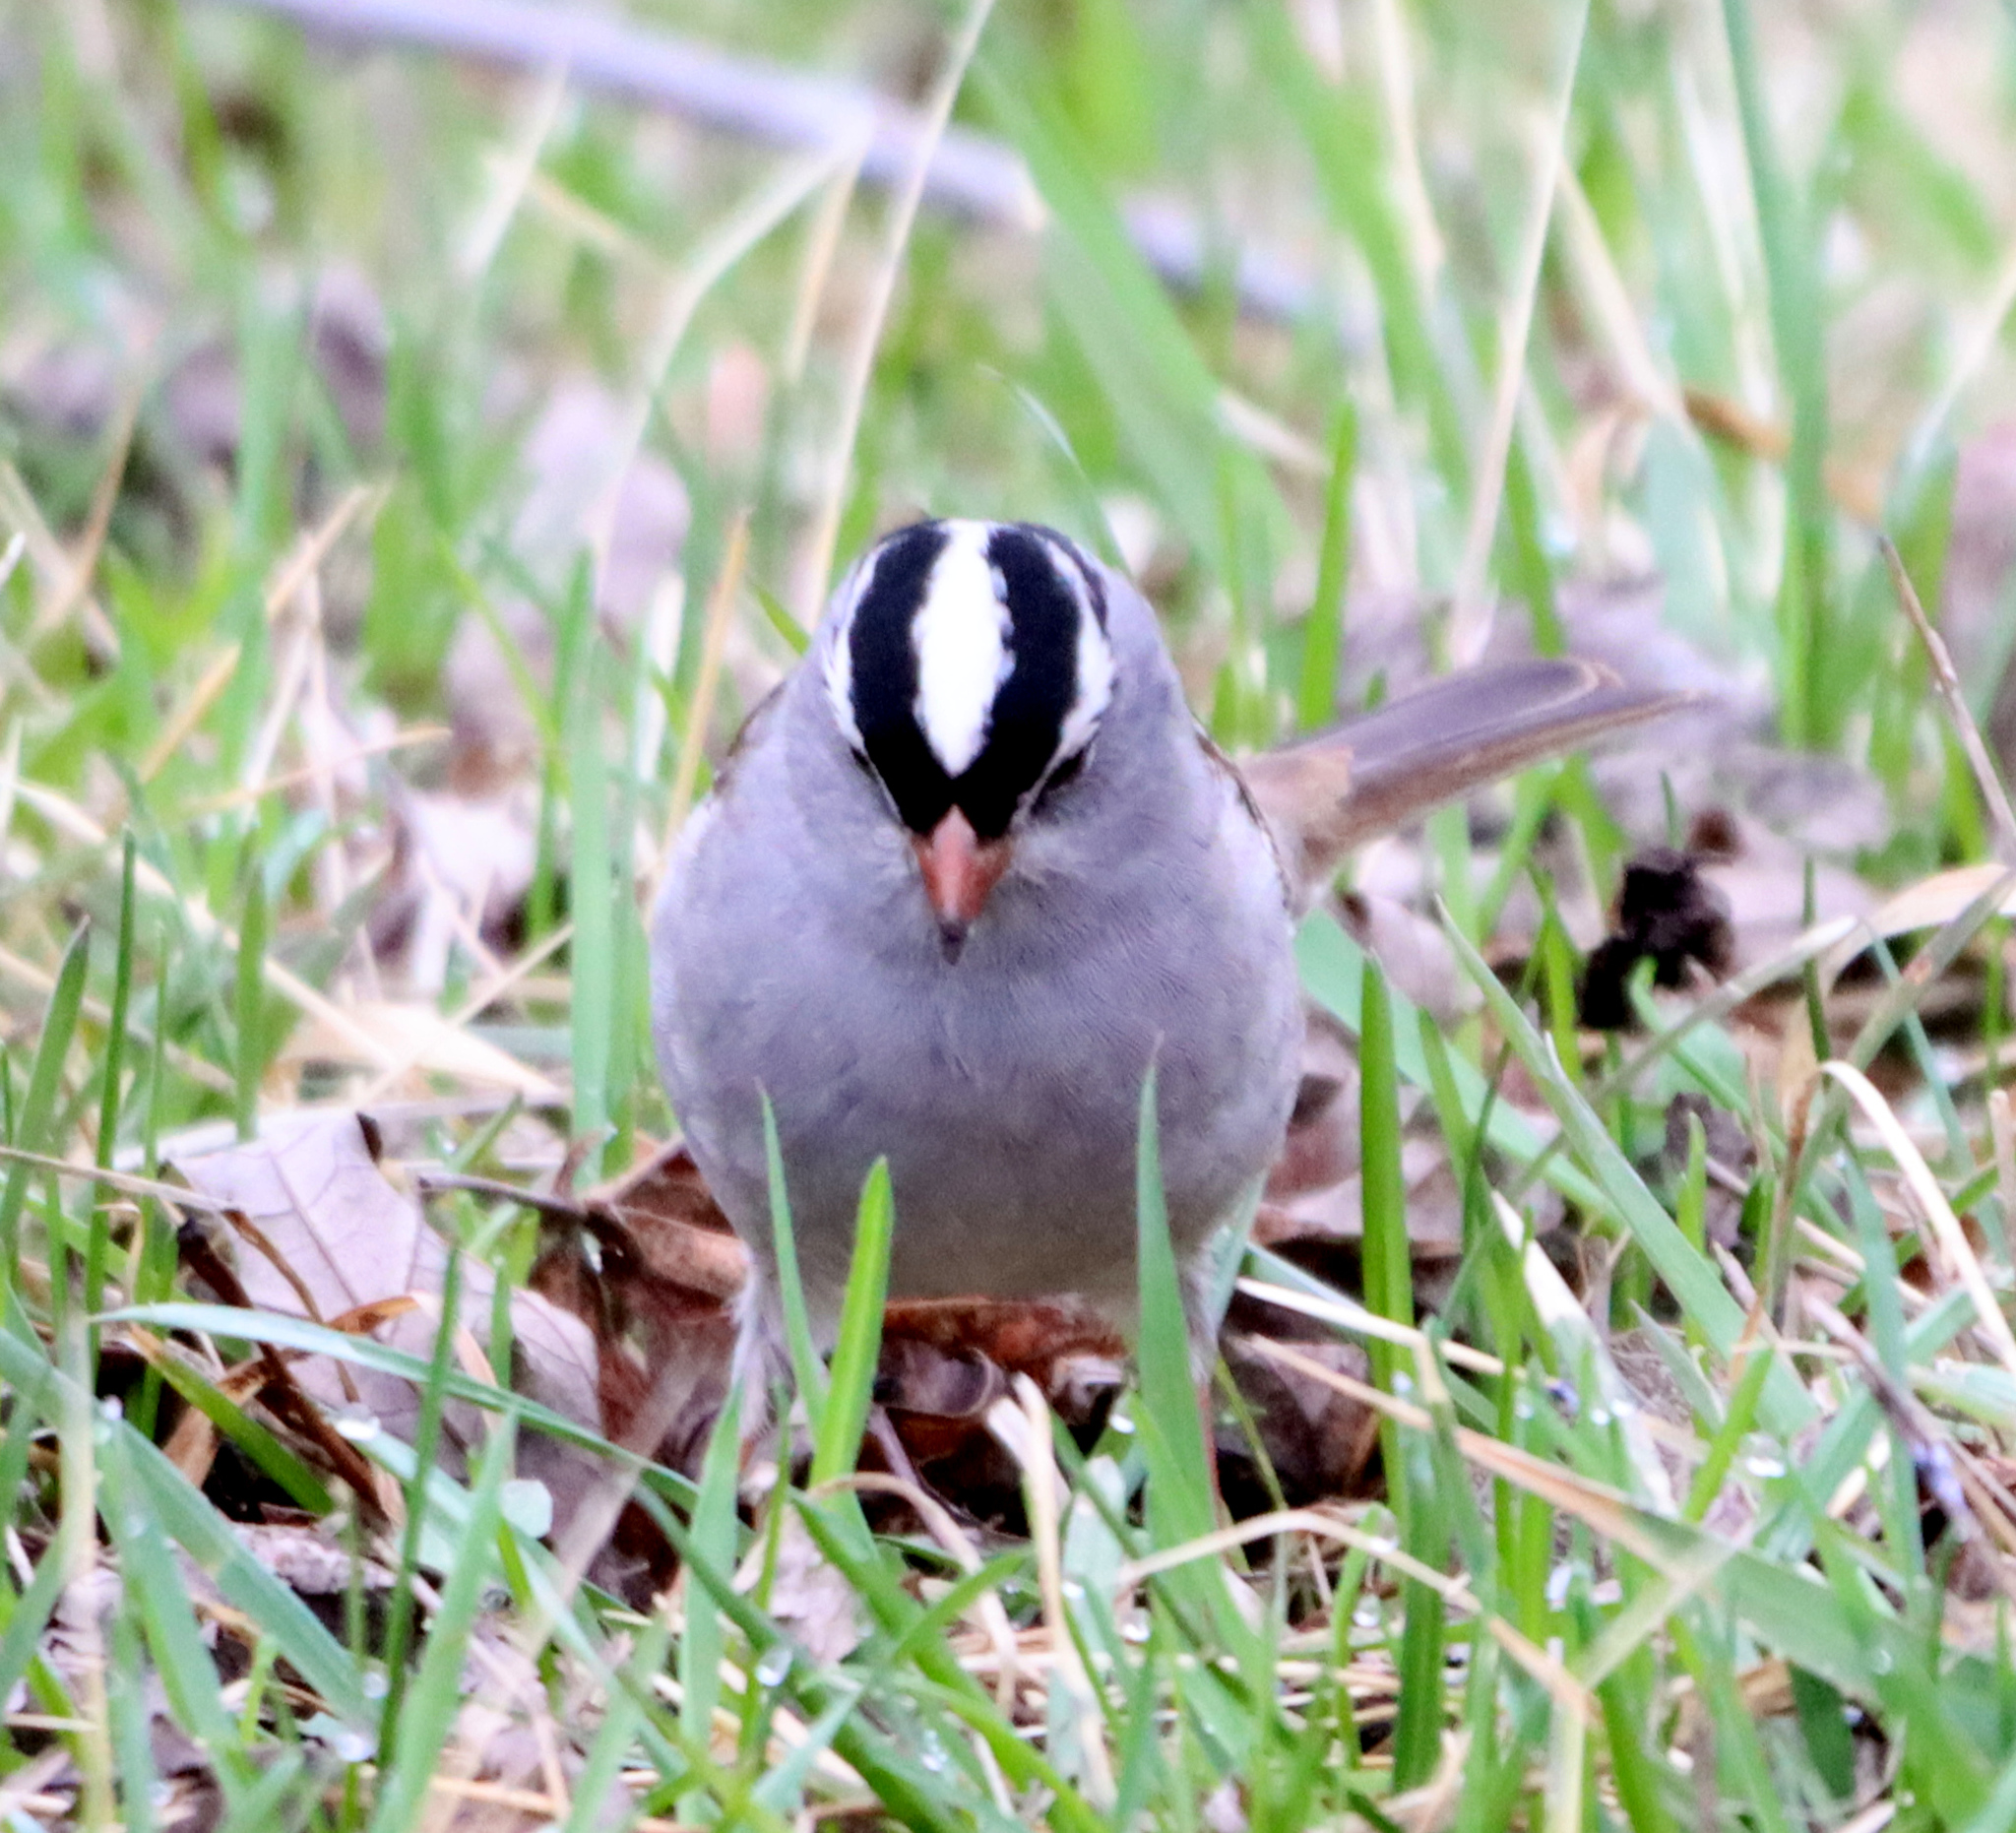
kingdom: Animalia
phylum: Chordata
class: Aves
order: Passeriformes
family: Passerellidae
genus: Zonotrichia
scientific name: Zonotrichia leucophrys
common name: White-crowned sparrow
